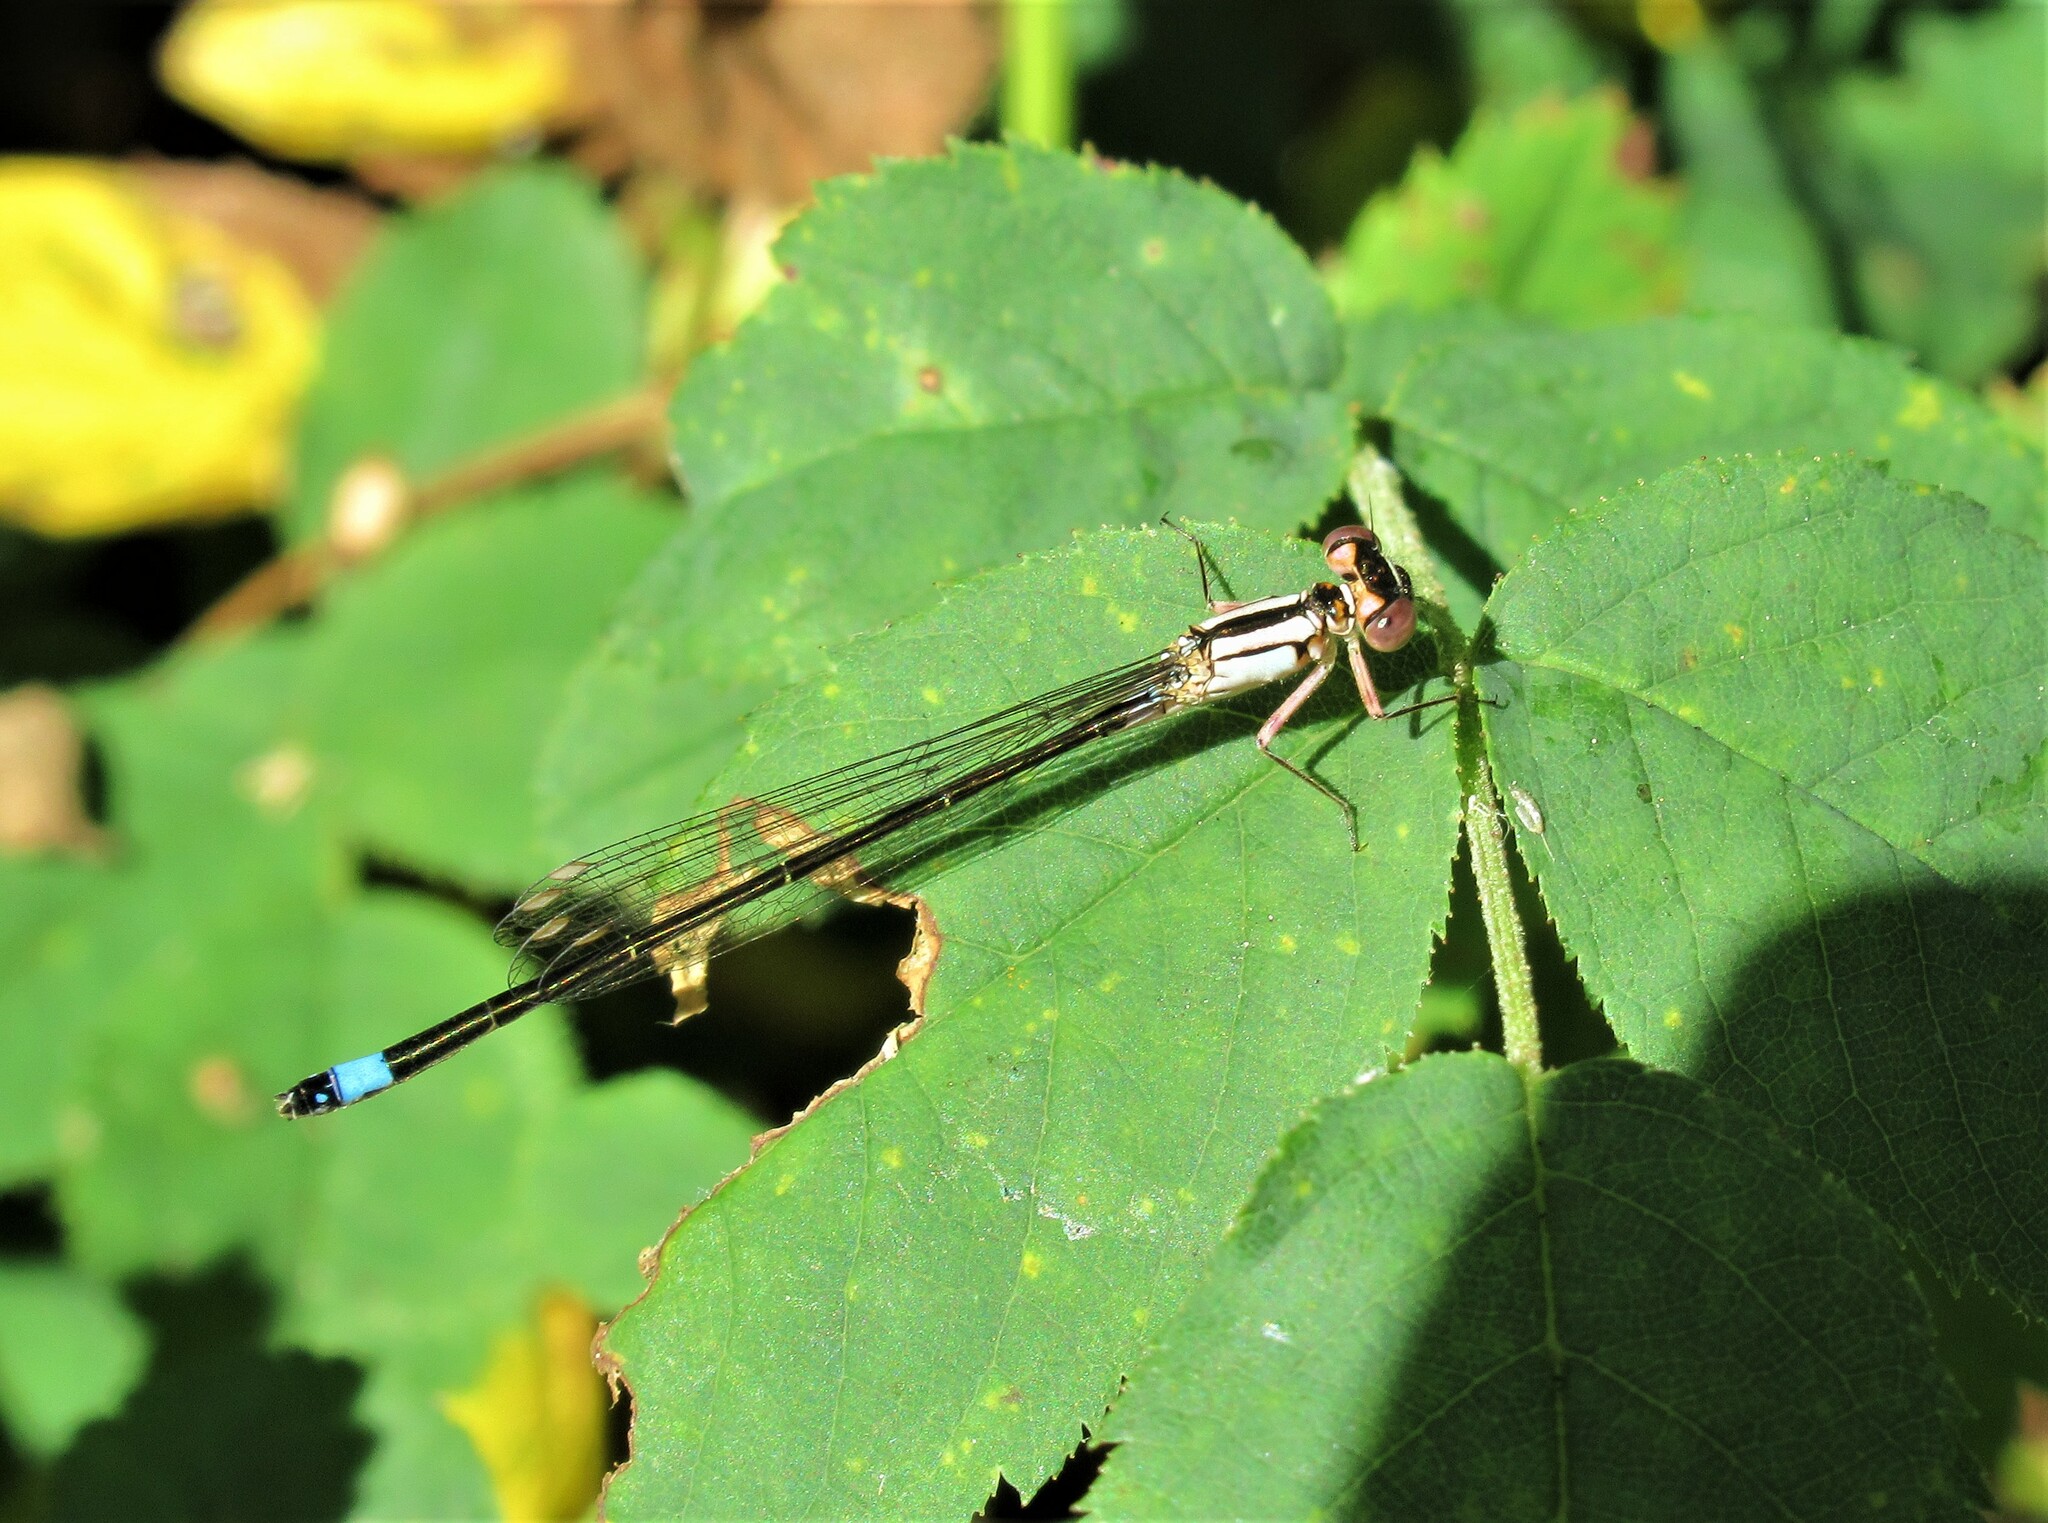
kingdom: Animalia
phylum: Arthropoda
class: Insecta
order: Odonata
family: Coenagrionidae
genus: Ischnura
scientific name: Ischnura cervula
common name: Pacific forktail
